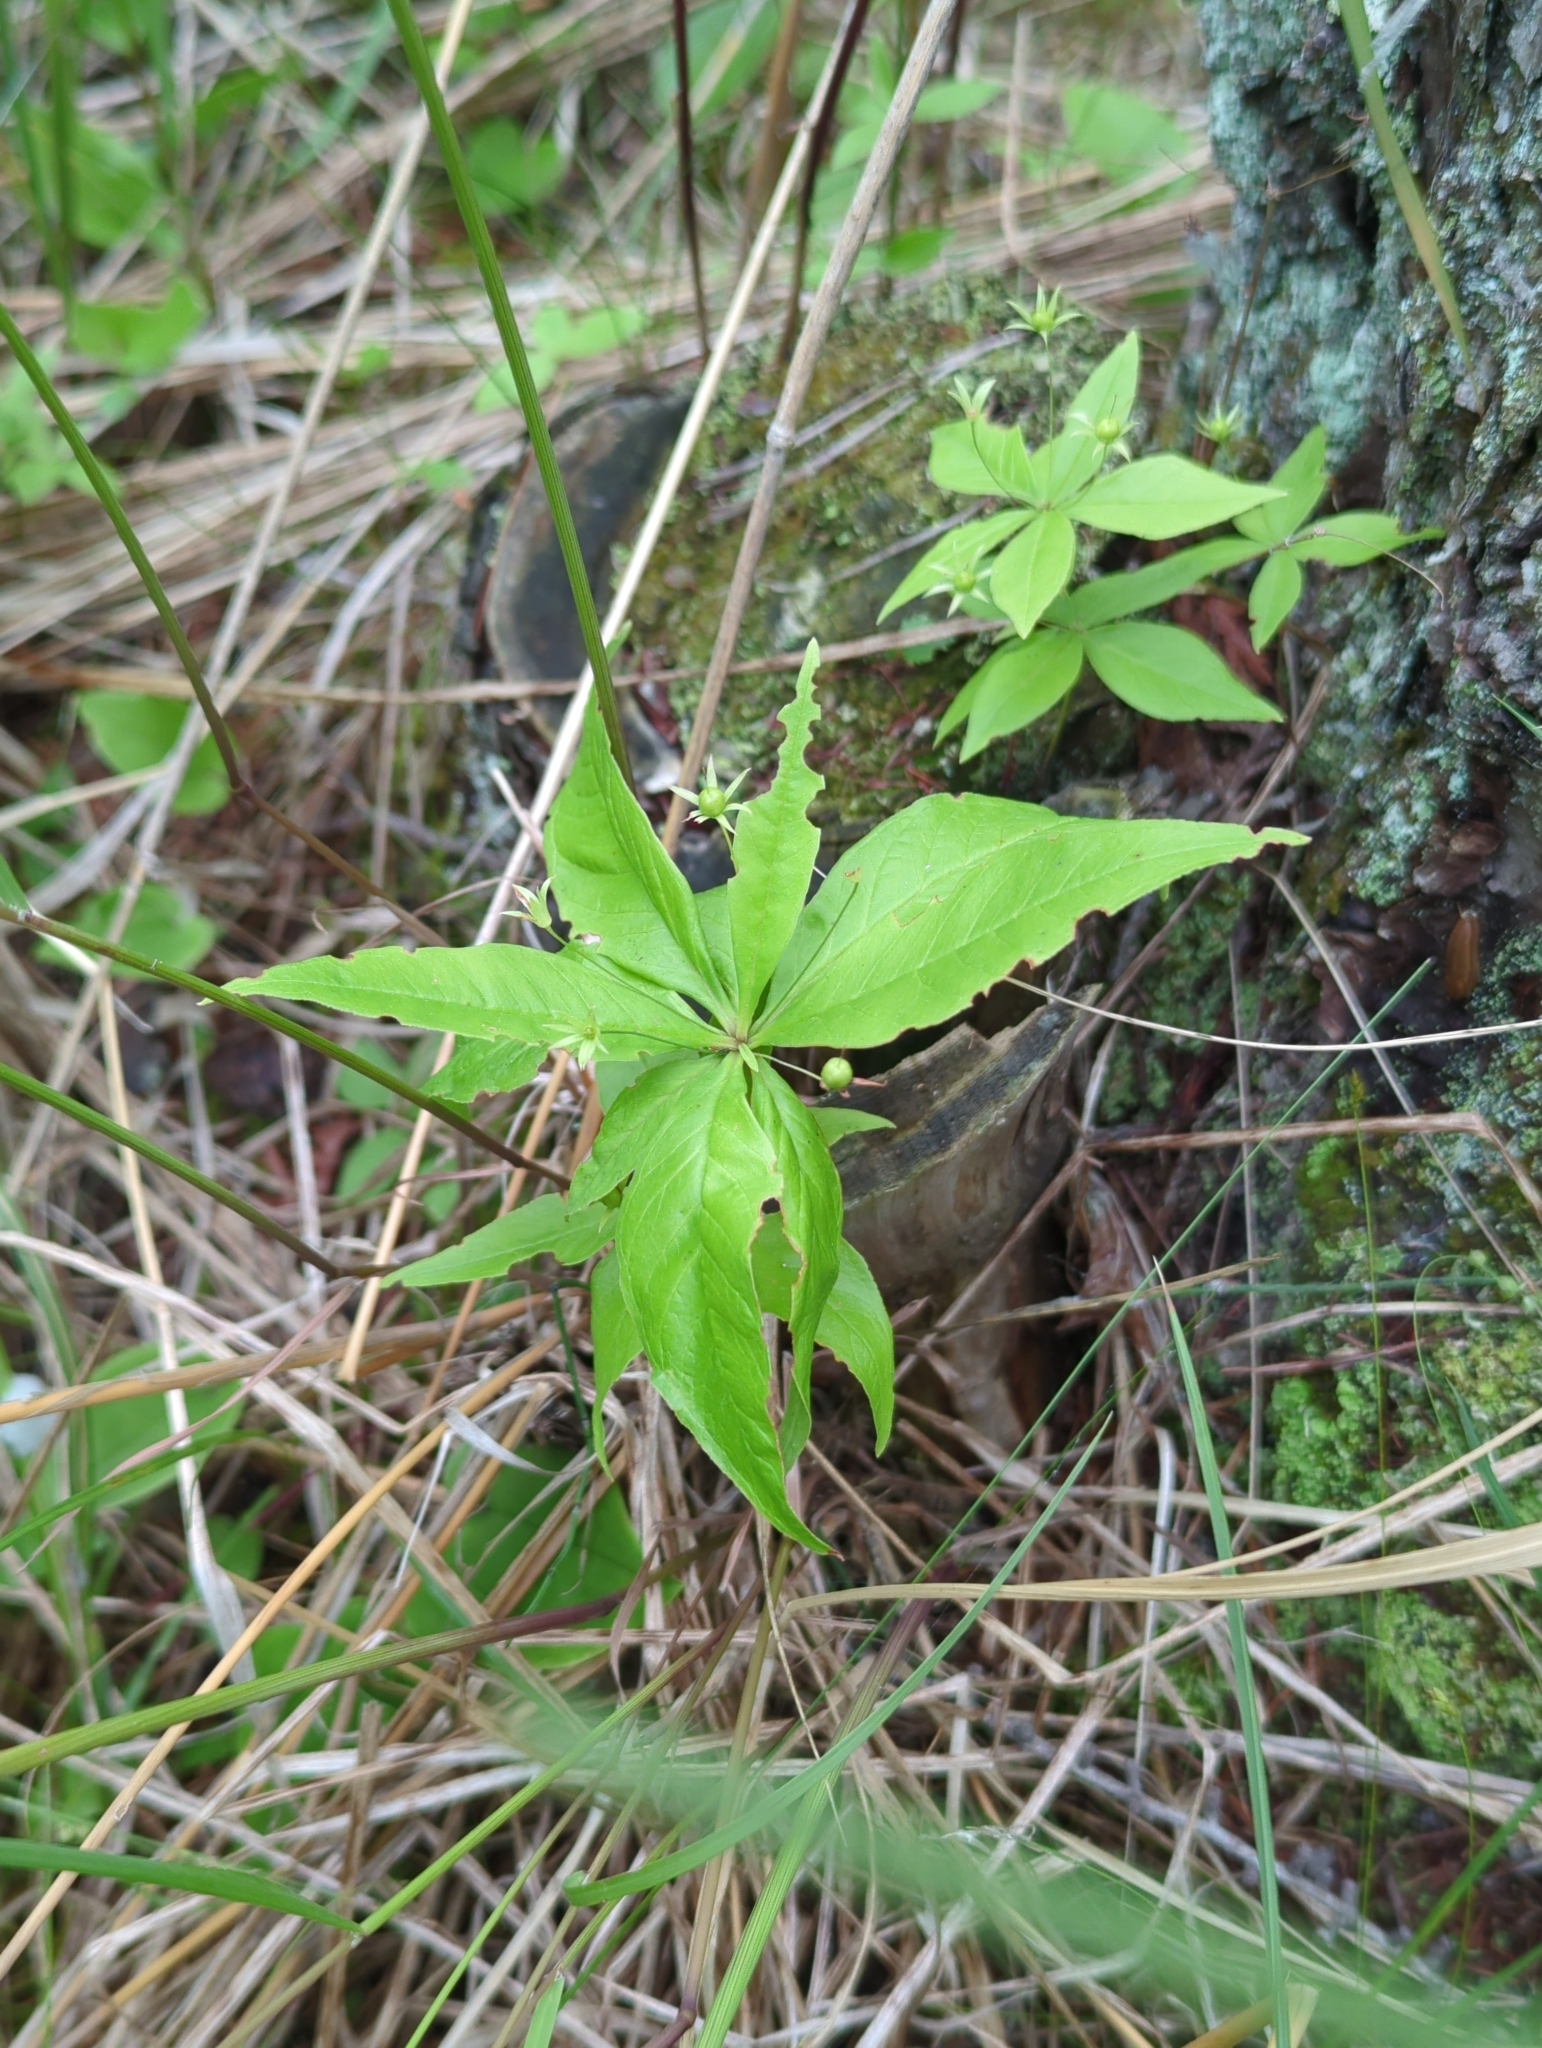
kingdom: Plantae
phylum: Tracheophyta
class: Magnoliopsida
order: Ericales
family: Primulaceae
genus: Lysimachia
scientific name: Lysimachia borealis
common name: American starflower
